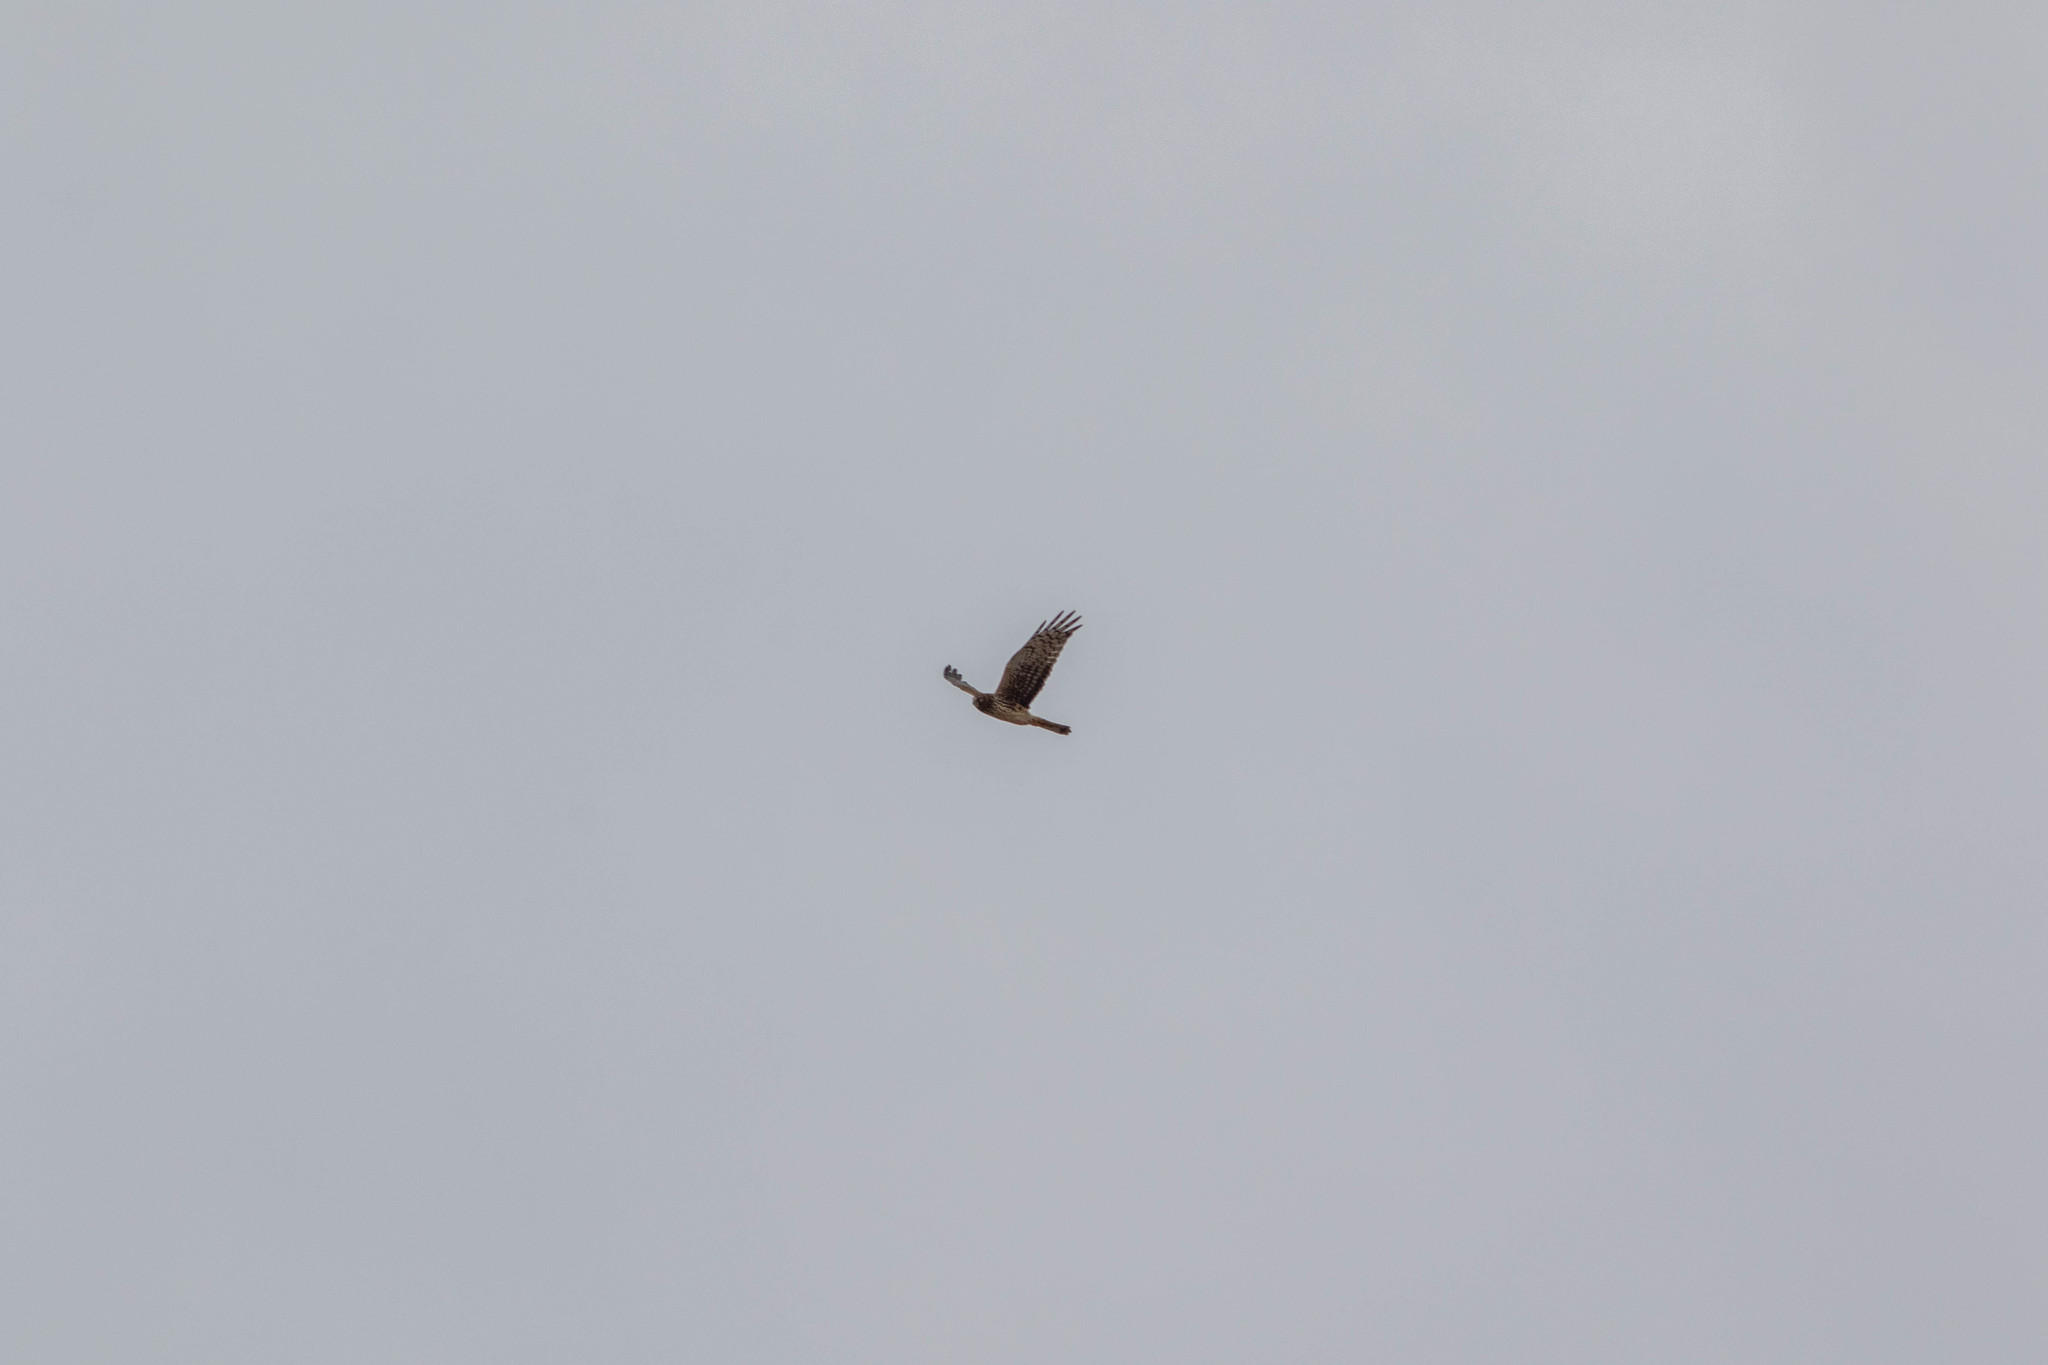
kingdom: Animalia
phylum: Chordata
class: Aves
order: Accipitriformes
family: Accipitridae
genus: Circus
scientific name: Circus cyaneus
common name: Hen harrier
